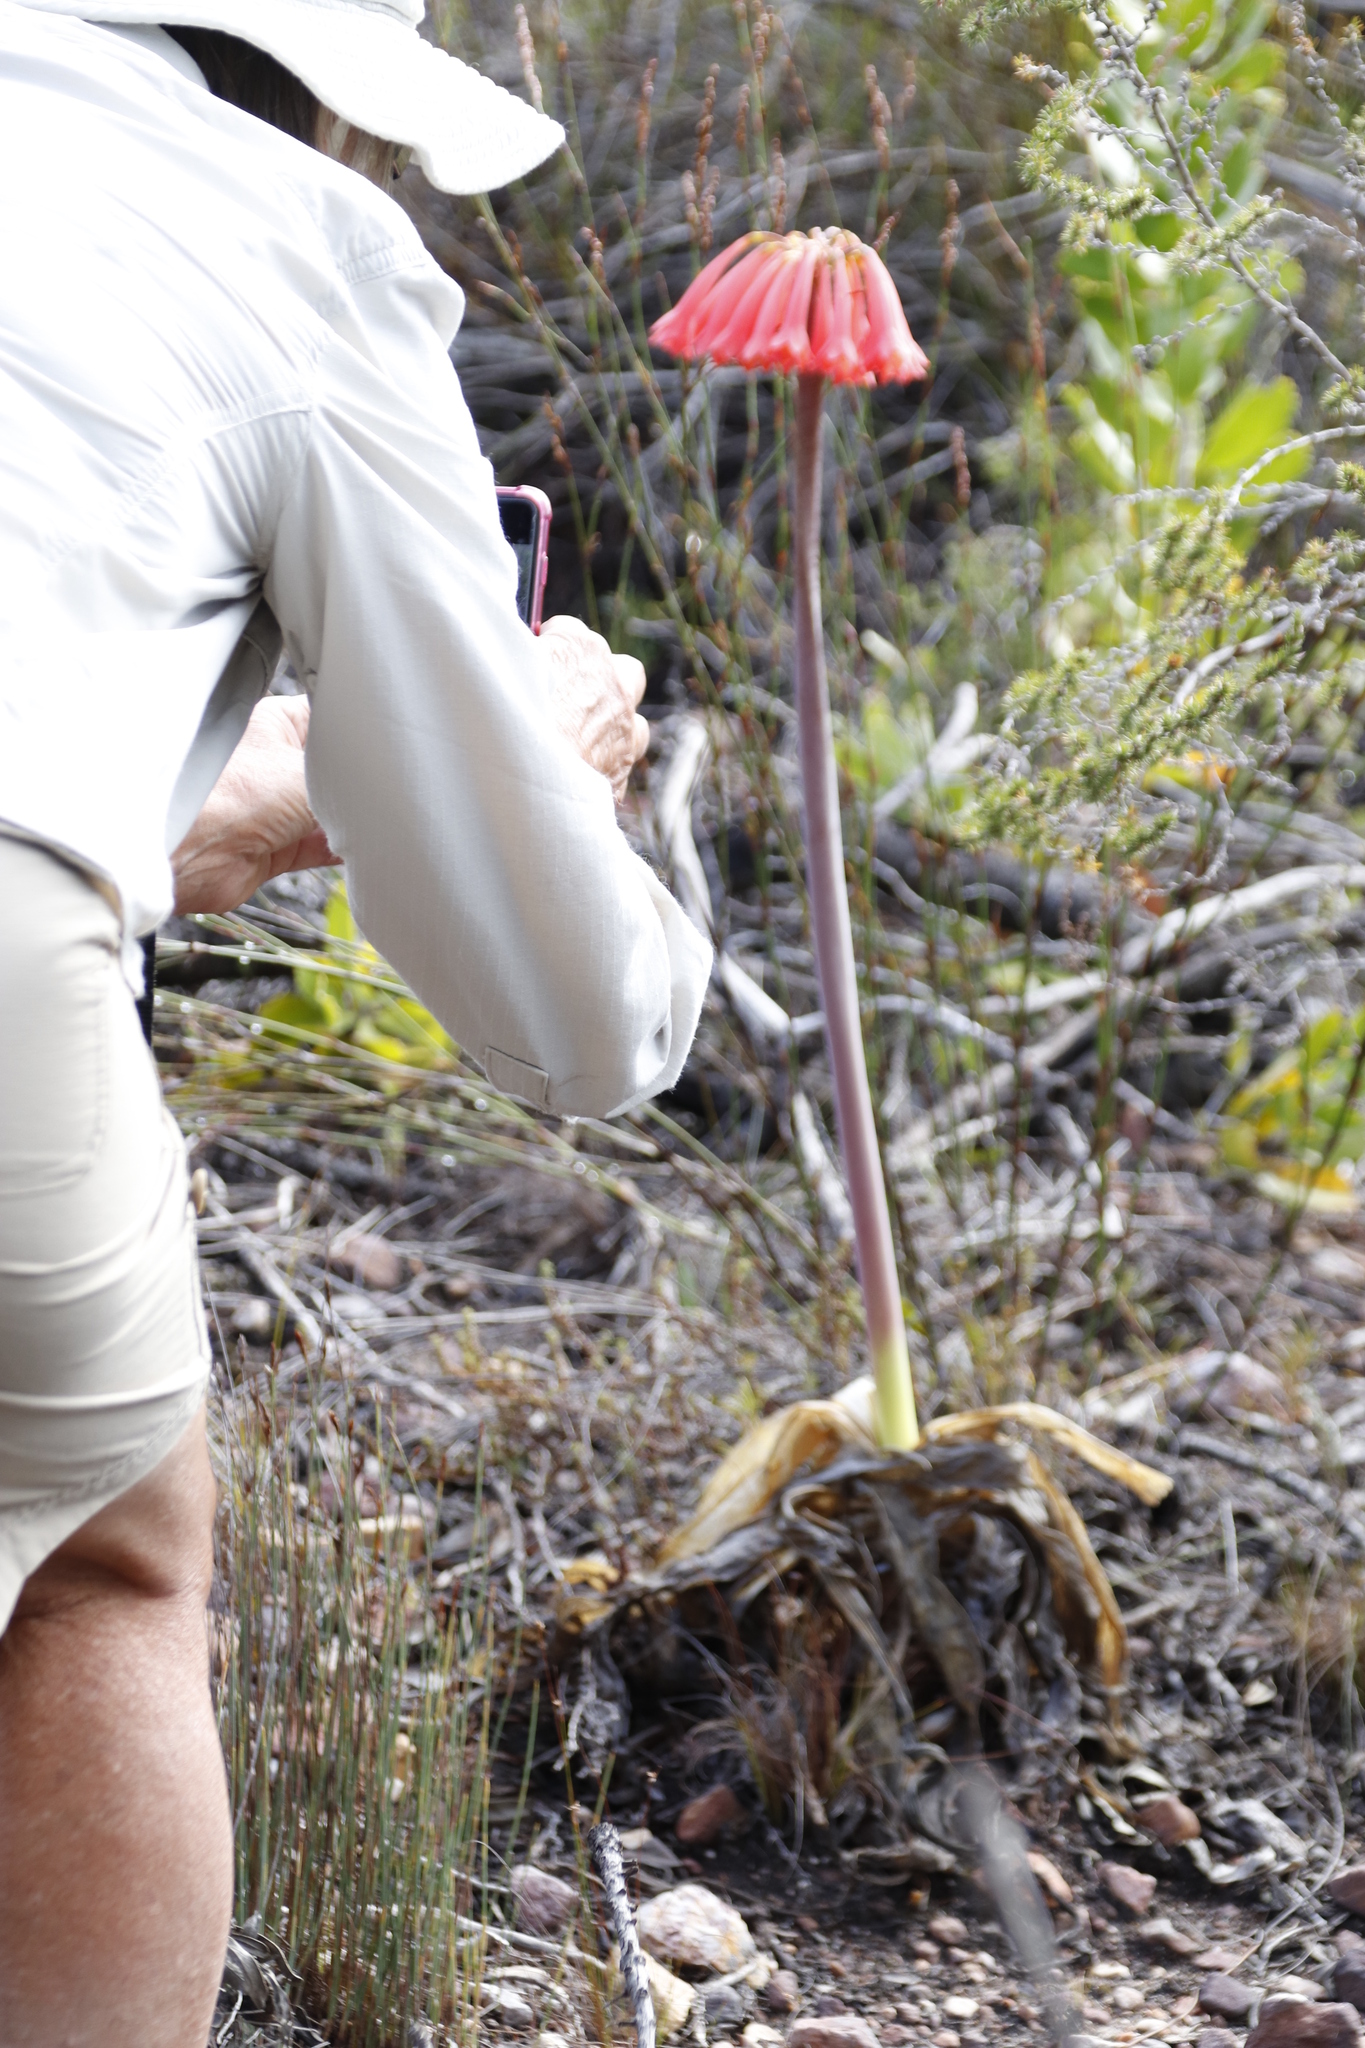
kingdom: Plantae
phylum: Tracheophyta
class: Liliopsida
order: Asparagales
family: Amaryllidaceae
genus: Cyrtanthus
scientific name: Cyrtanthus carneus
